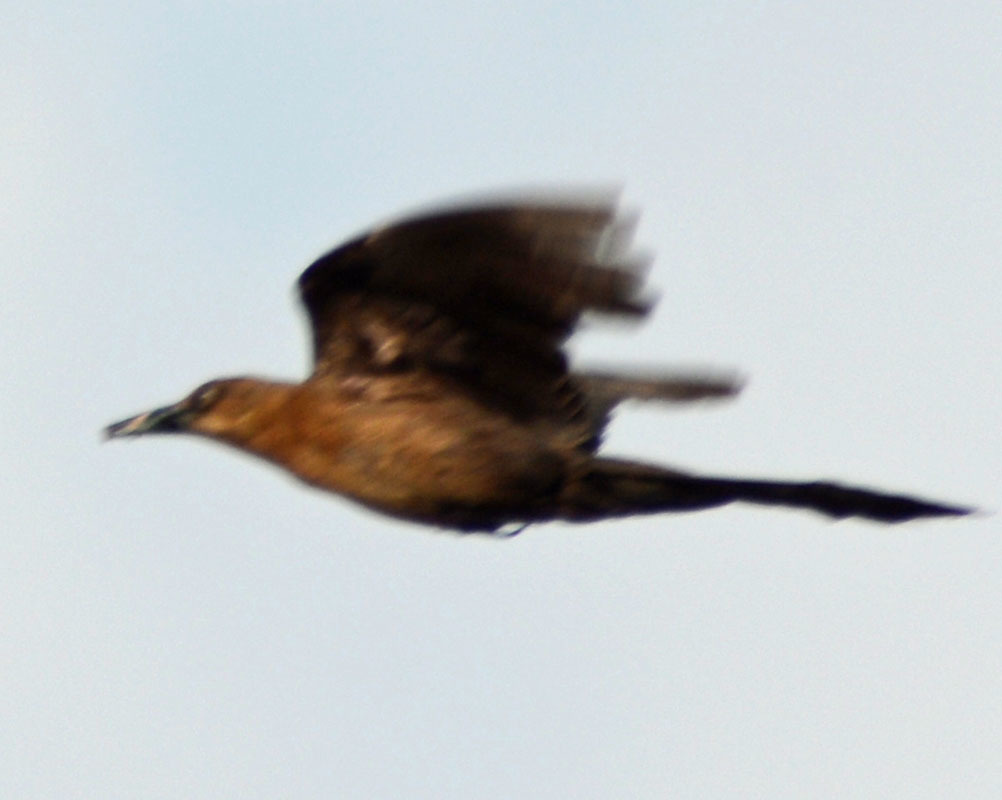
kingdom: Animalia
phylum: Chordata
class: Aves
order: Passeriformes
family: Icteridae
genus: Quiscalus
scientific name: Quiscalus mexicanus
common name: Great-tailed grackle
